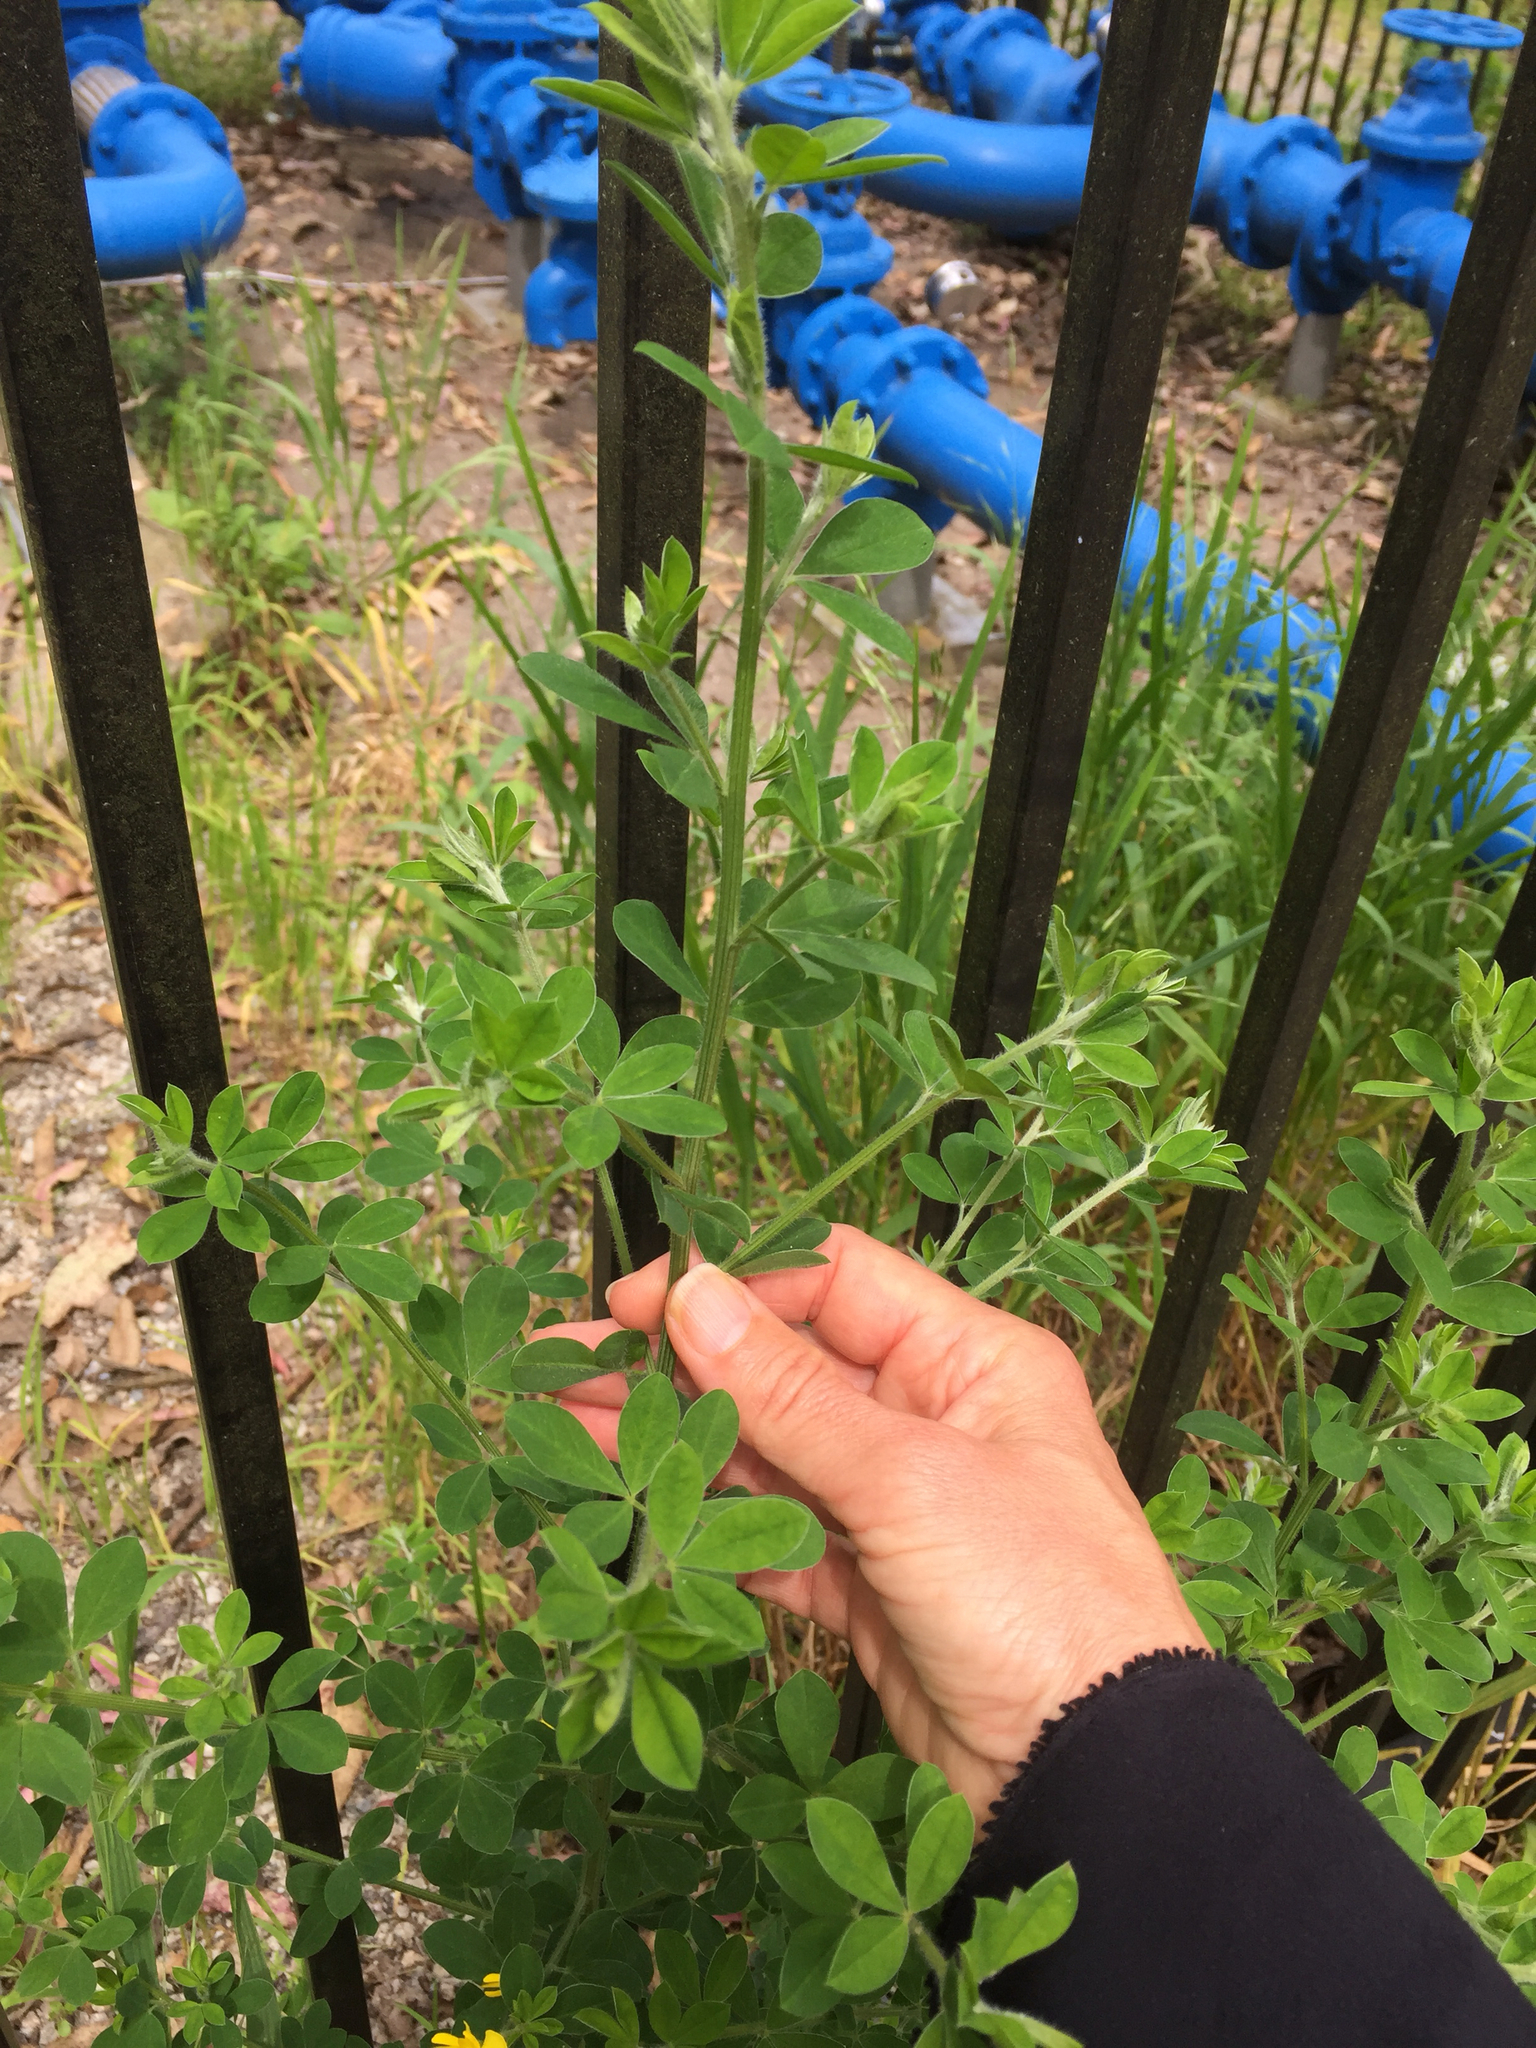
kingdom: Plantae
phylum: Tracheophyta
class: Magnoliopsida
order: Fabales
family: Fabaceae
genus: Genista
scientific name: Genista monspessulana
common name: Montpellier broom
